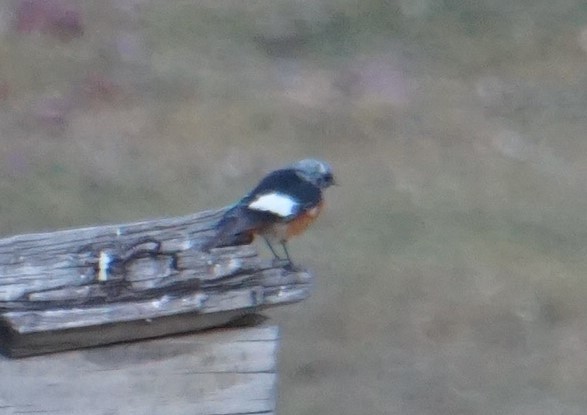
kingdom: Animalia
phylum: Chordata
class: Aves
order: Passeriformes
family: Muscicapidae
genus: Phoenicurus
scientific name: Phoenicurus erythrogastrus
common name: Güldenstädt's redstart
